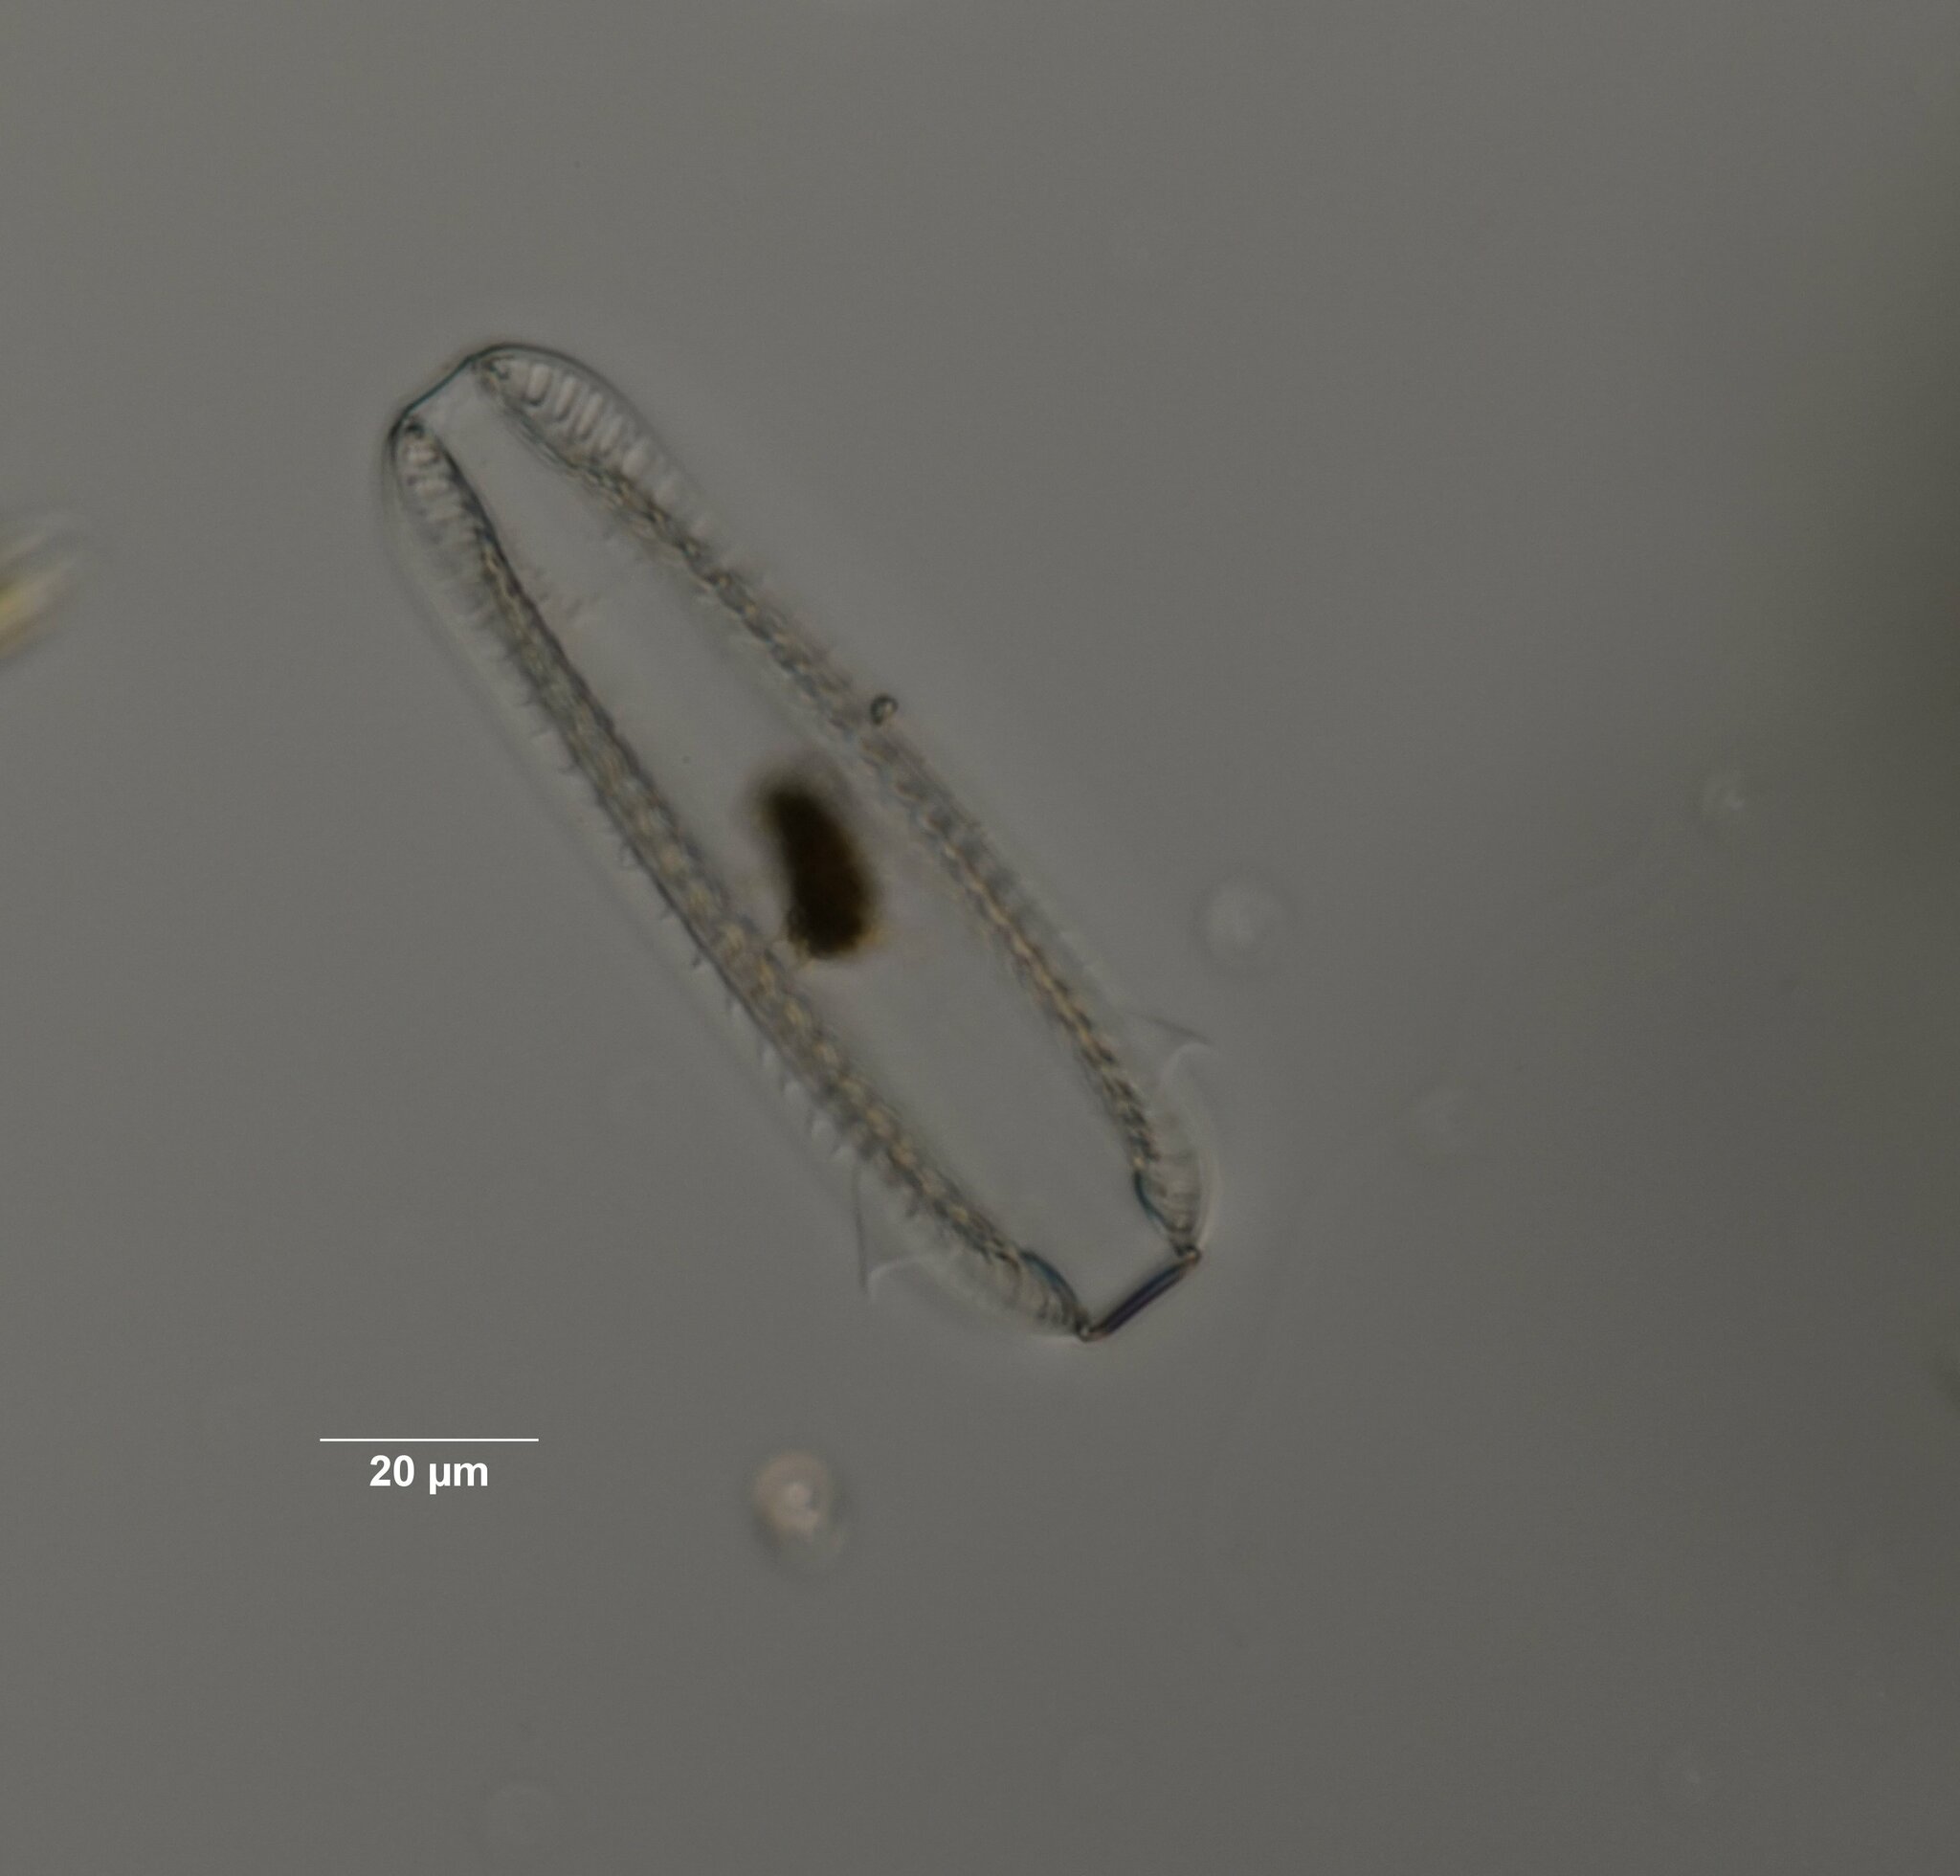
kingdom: Chromista
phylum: Ochrophyta
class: Bacillariophyceae
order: Surirellales
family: Surirellaceae
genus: Surirella
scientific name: Surirella tenera
